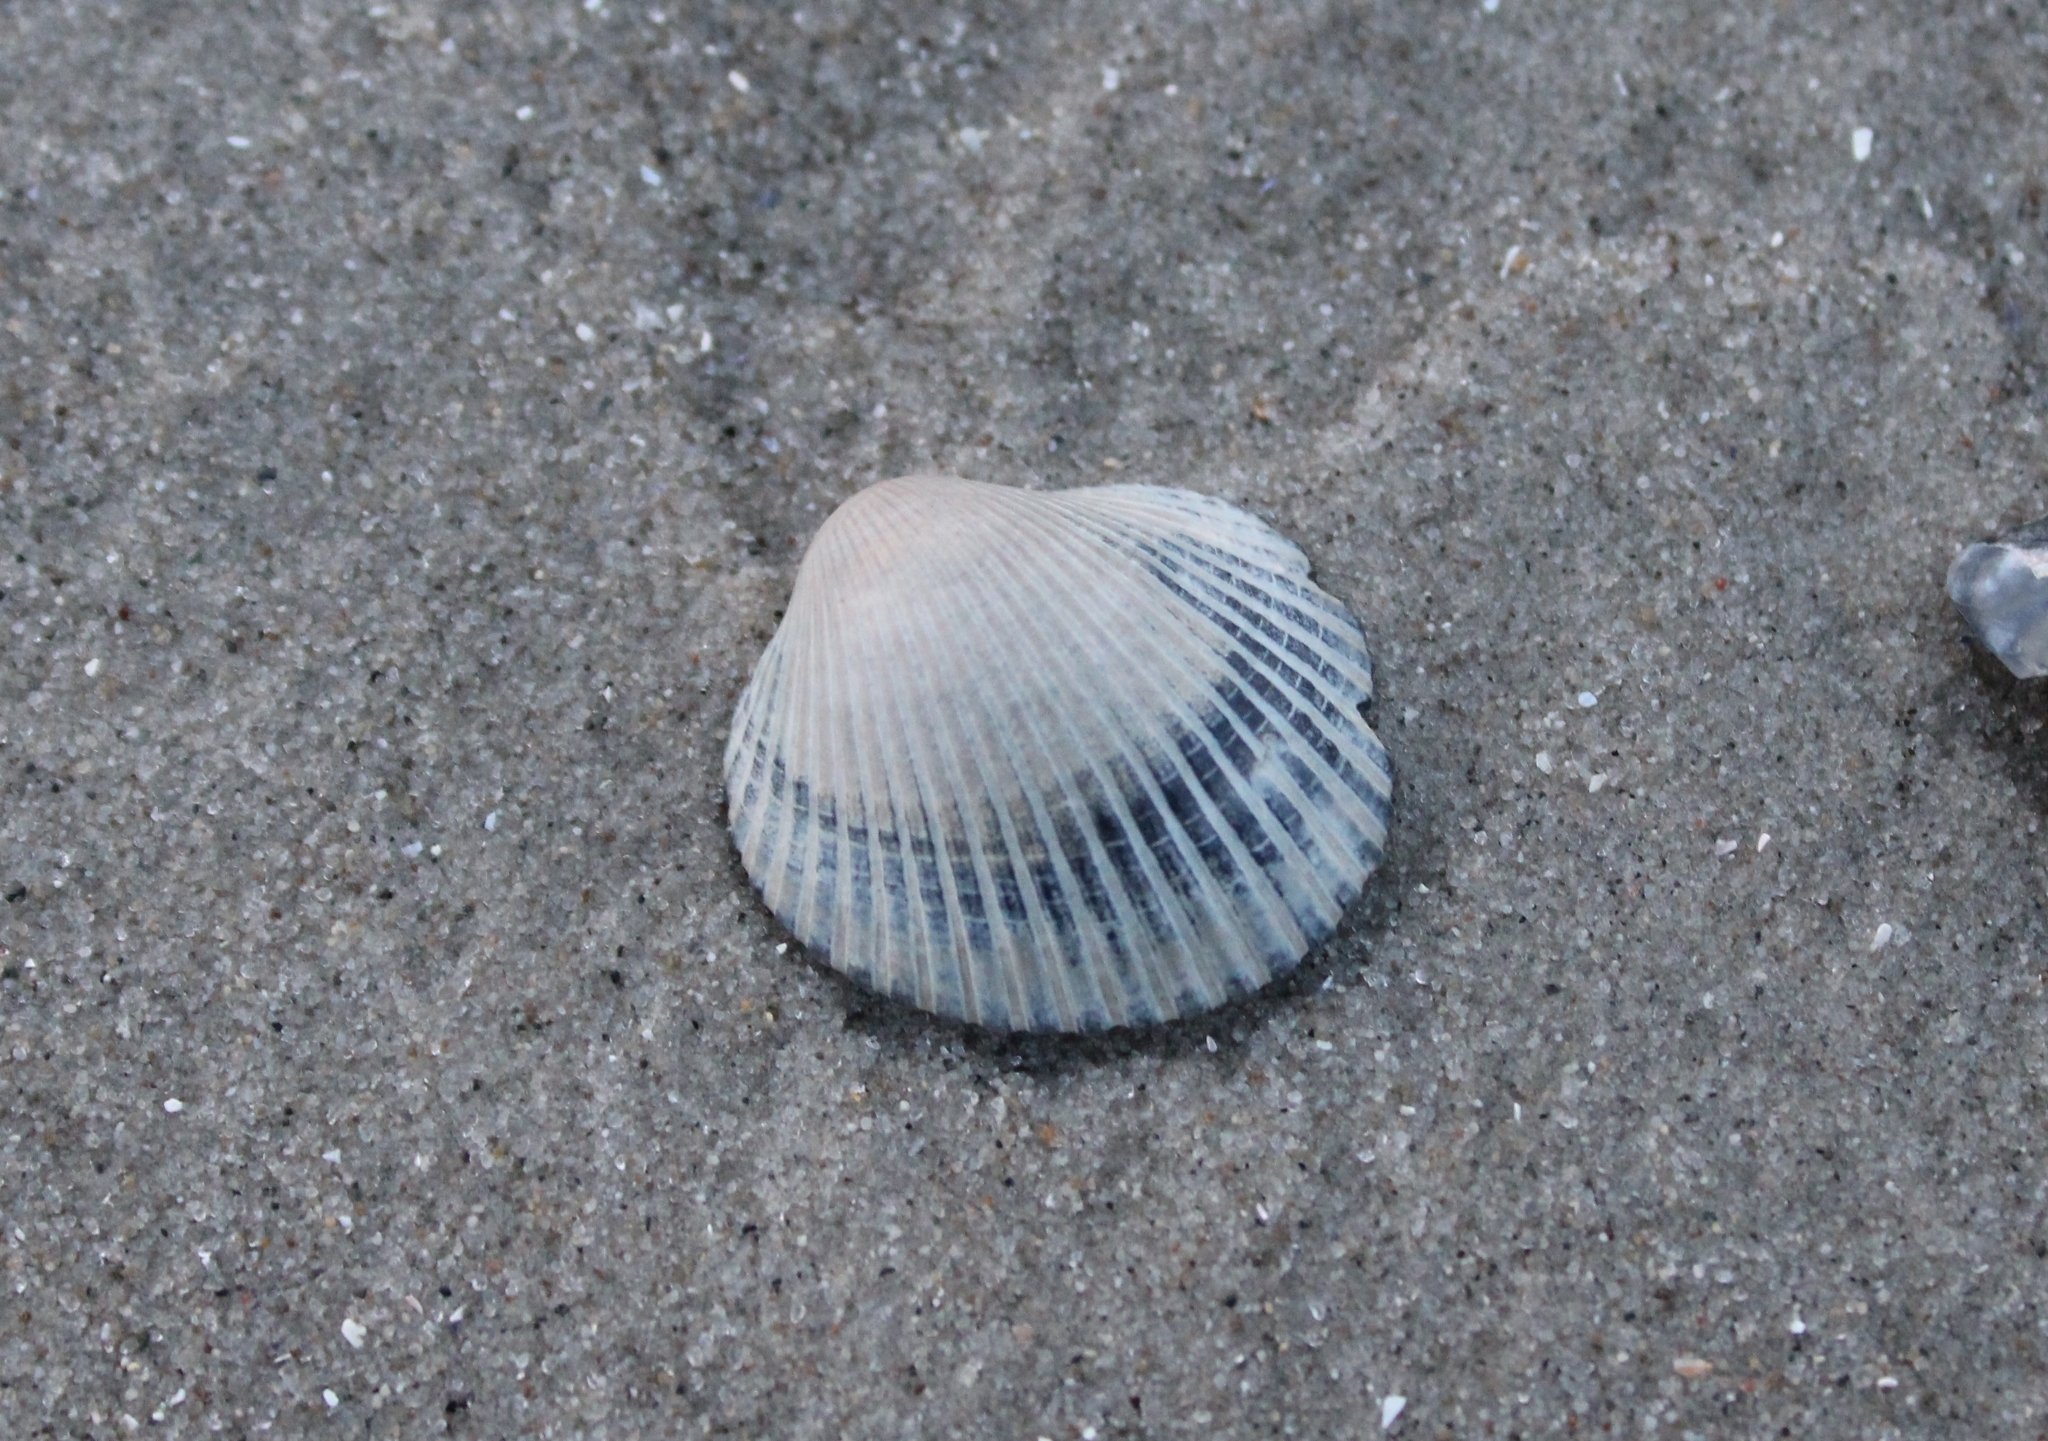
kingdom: Animalia
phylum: Mollusca
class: Bivalvia
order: Arcida
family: Arcidae
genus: Lunarca
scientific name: Lunarca ovalis
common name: Blood ark
